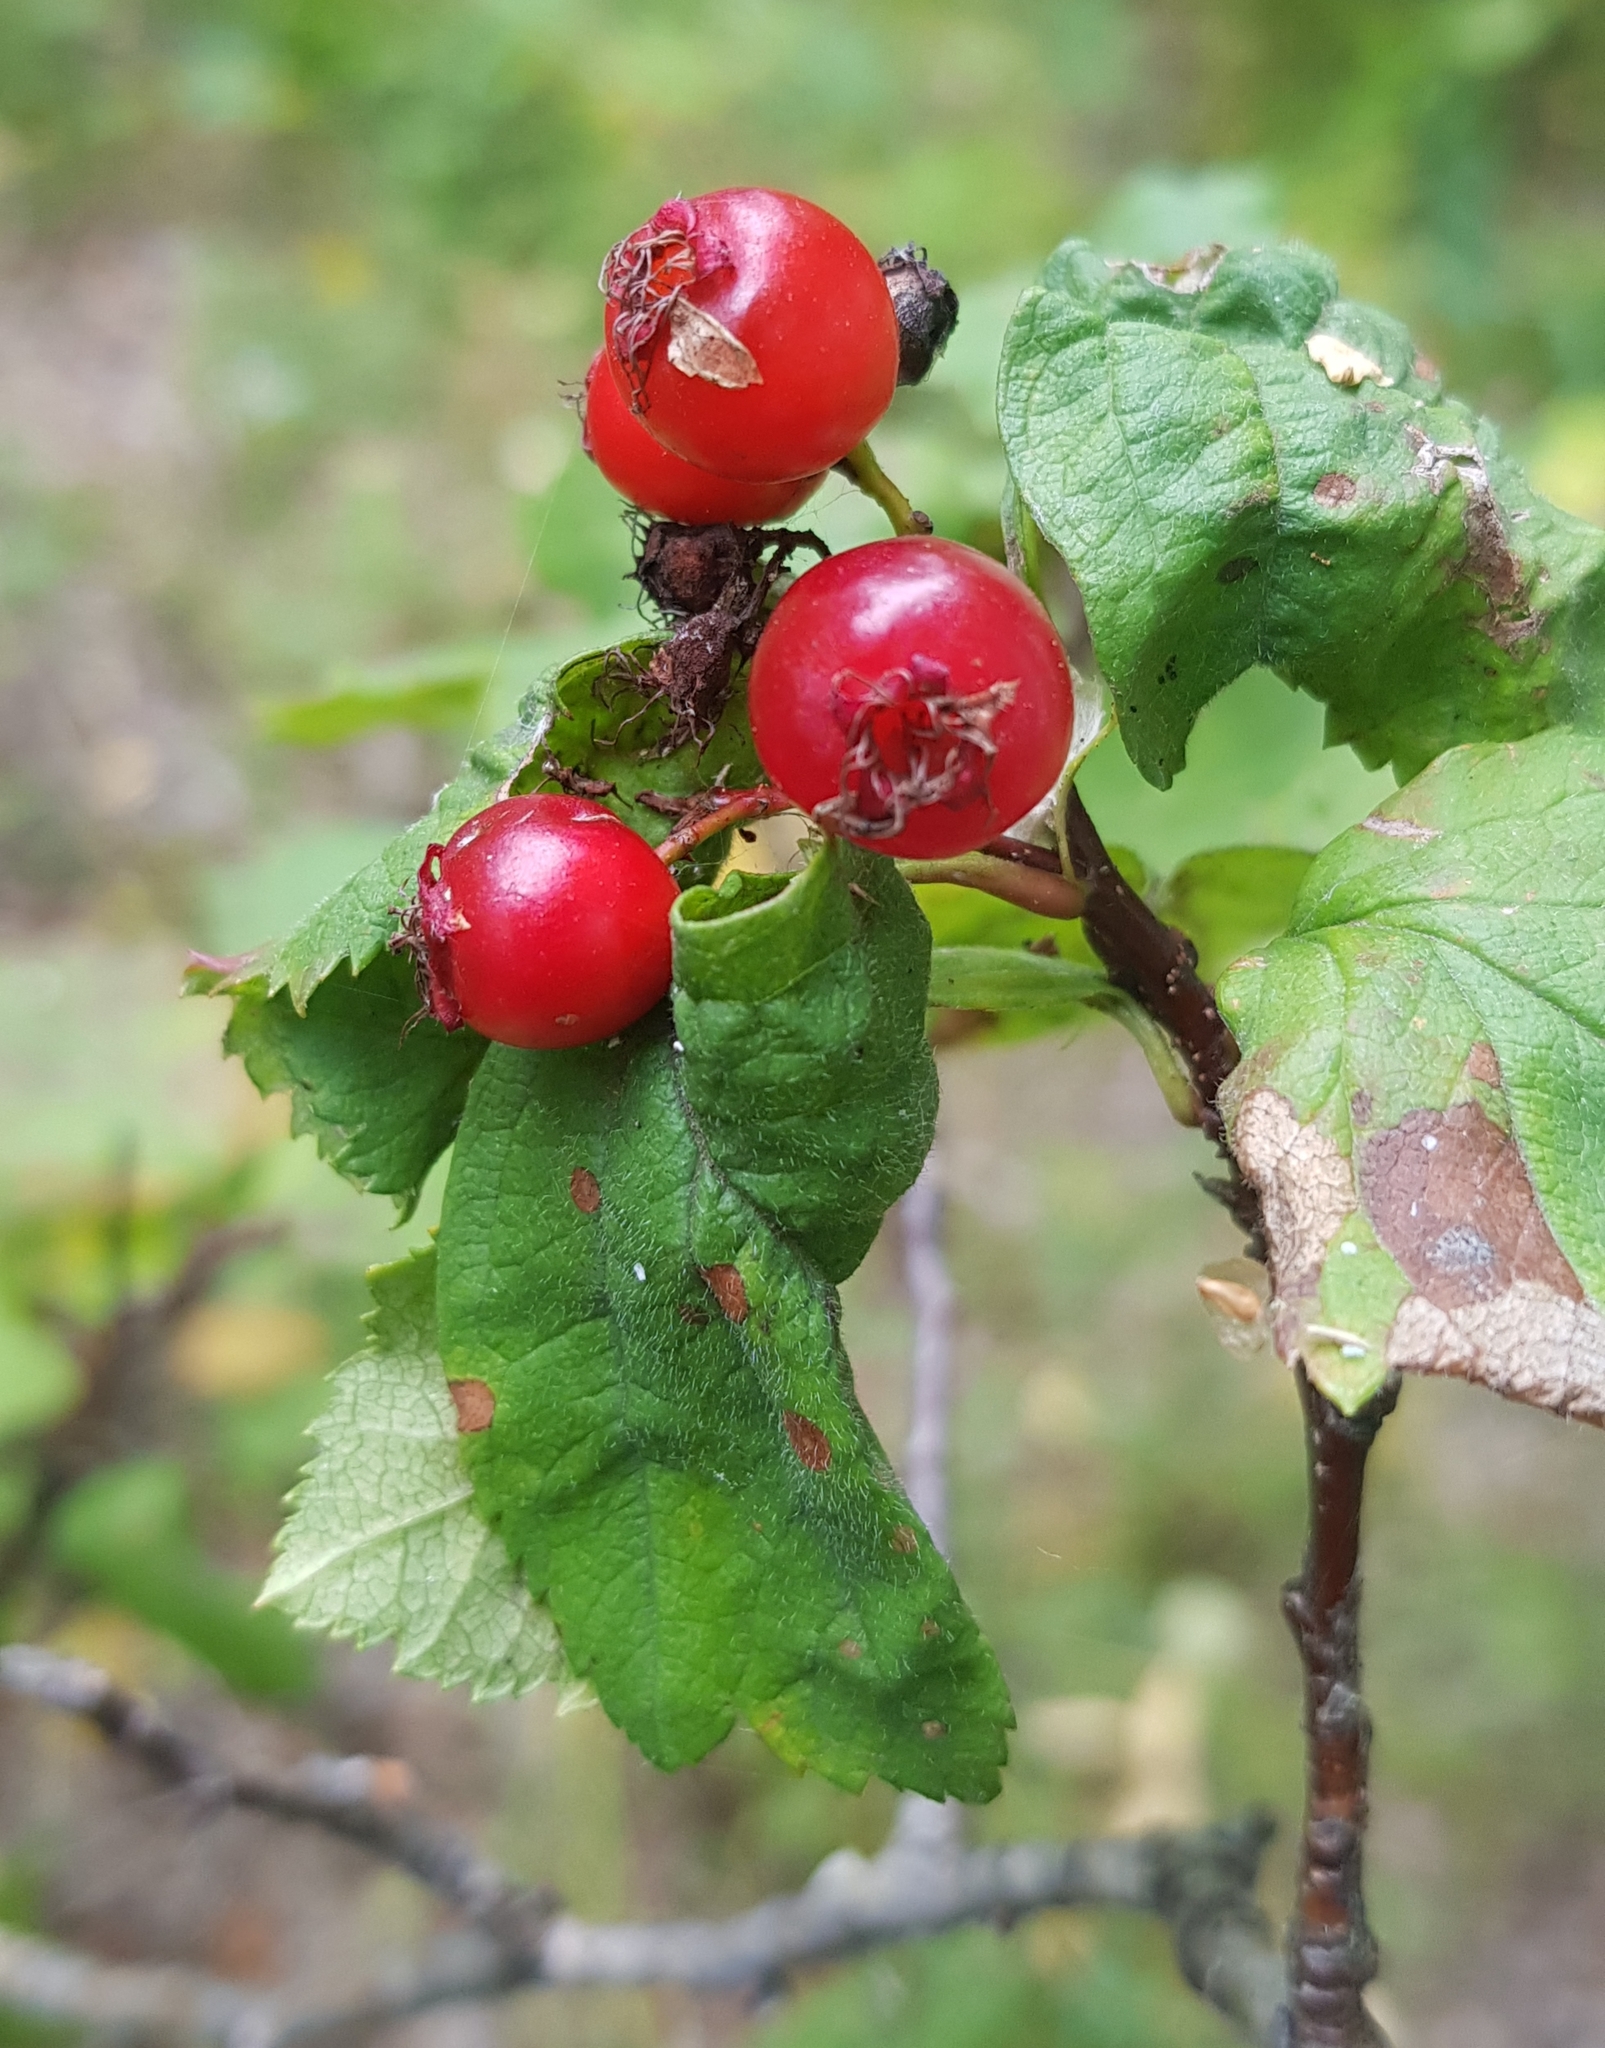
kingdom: Plantae
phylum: Tracheophyta
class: Magnoliopsida
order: Rosales
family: Rosaceae
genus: Crataegus
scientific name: Crataegus sanguinea
